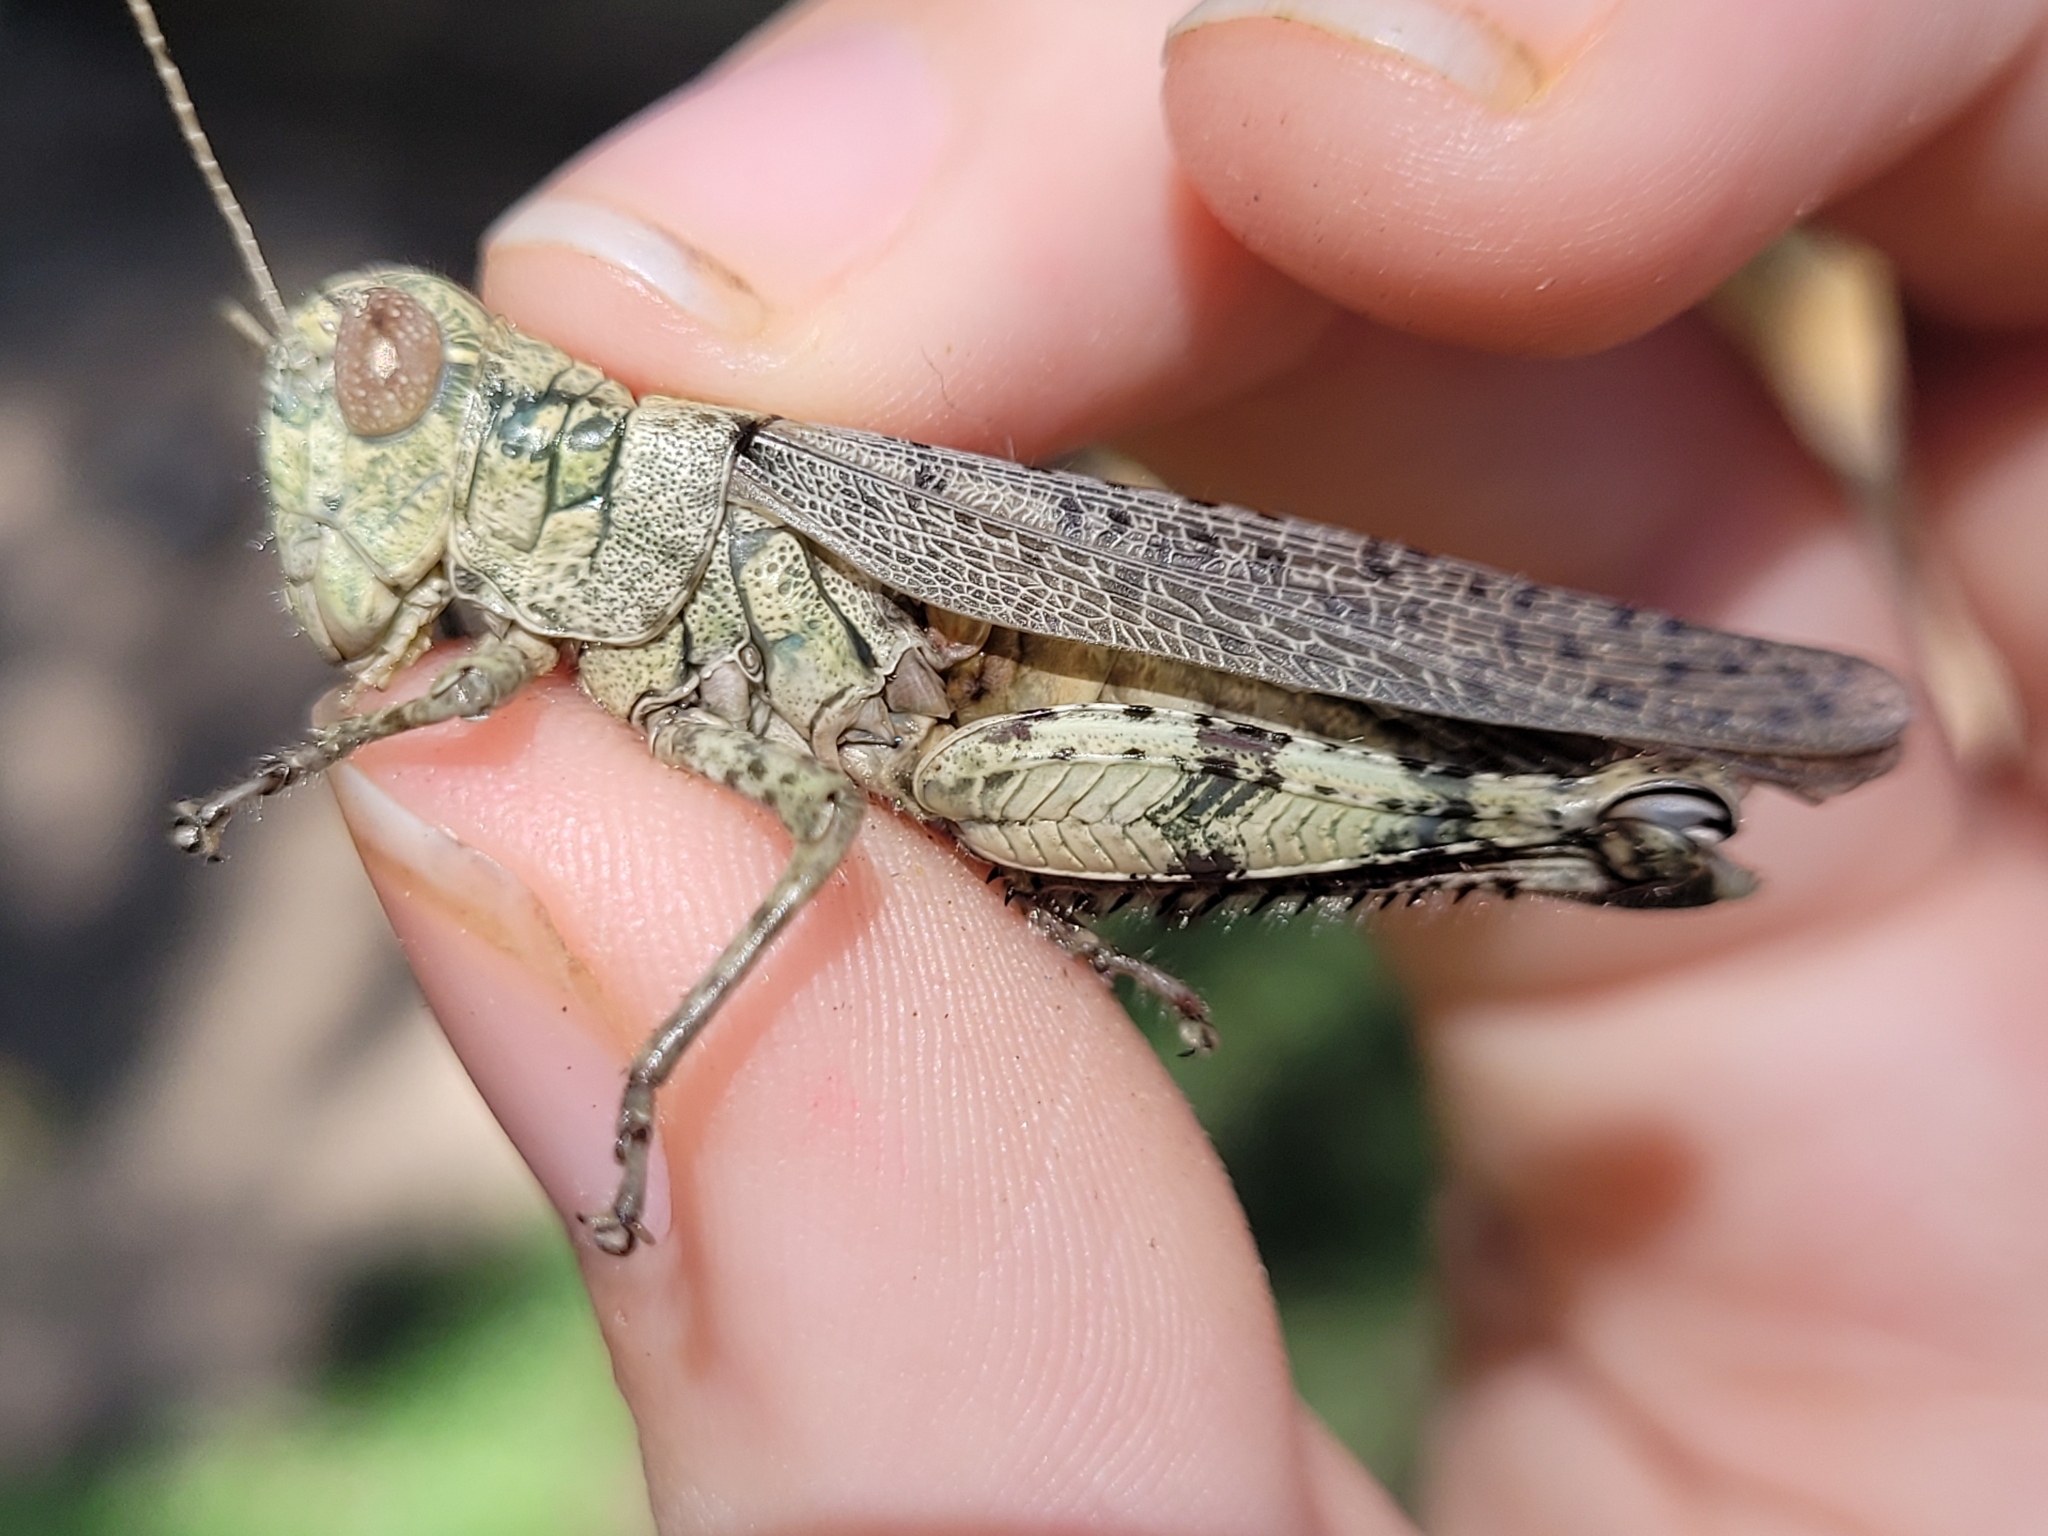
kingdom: Animalia
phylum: Arthropoda
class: Insecta
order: Orthoptera
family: Acrididae
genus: Melanoplus
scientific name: Melanoplus punctulatus
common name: Pine-tree spur-throat grasshopper
